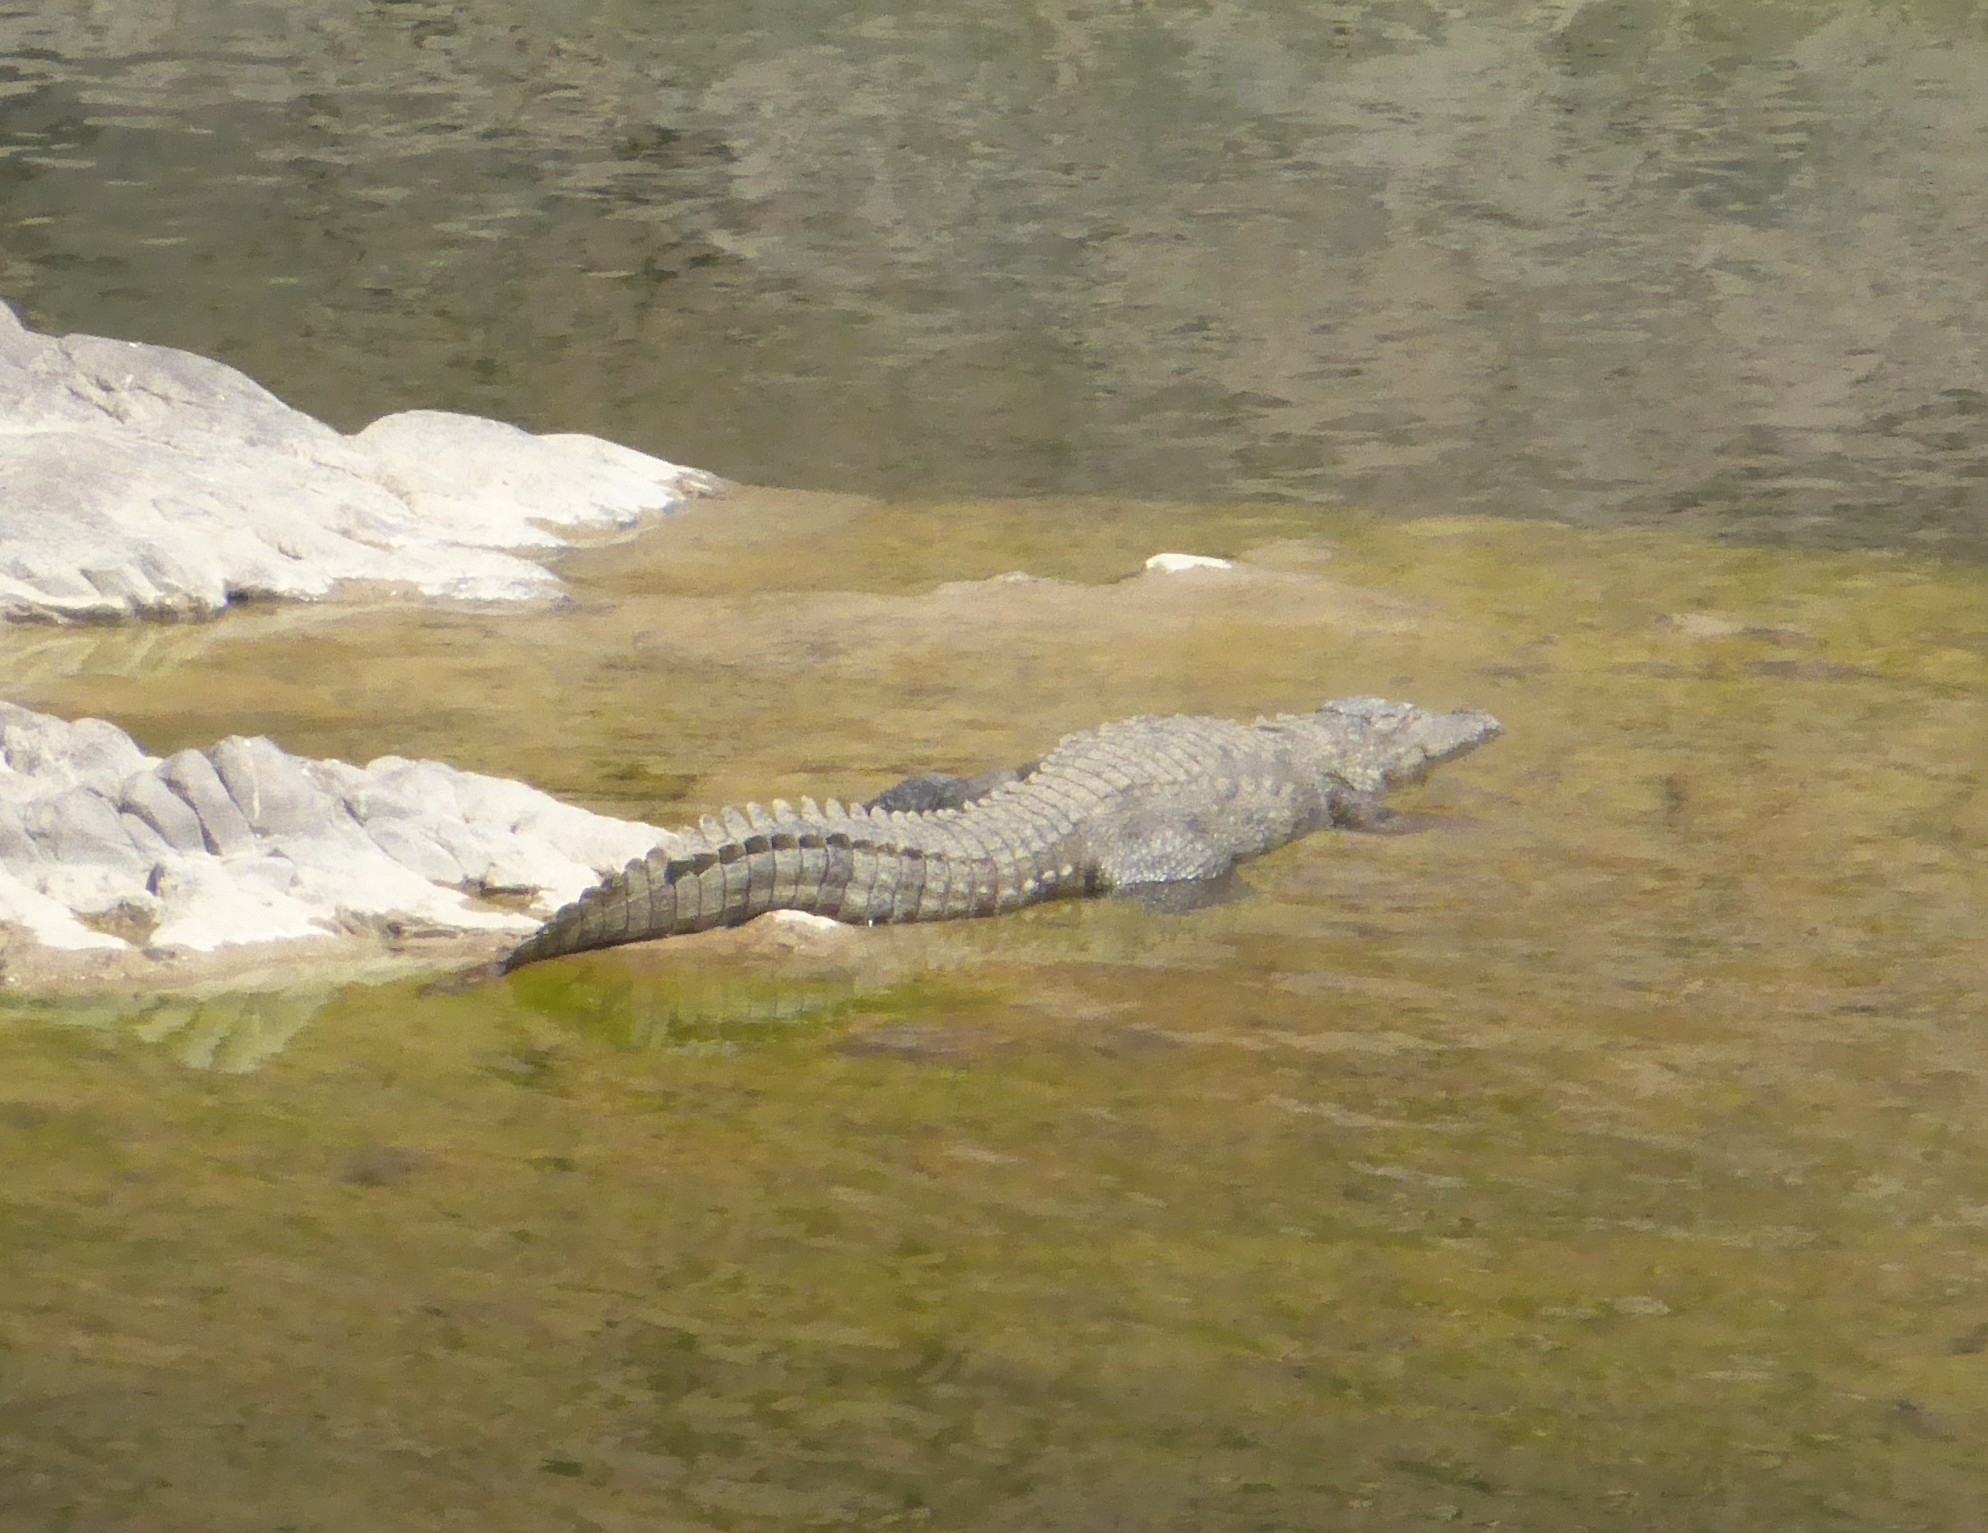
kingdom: Animalia
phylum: Chordata
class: Crocodylia
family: Crocodylidae
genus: Crocodylus
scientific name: Crocodylus palustris
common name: Mugger crocodile
